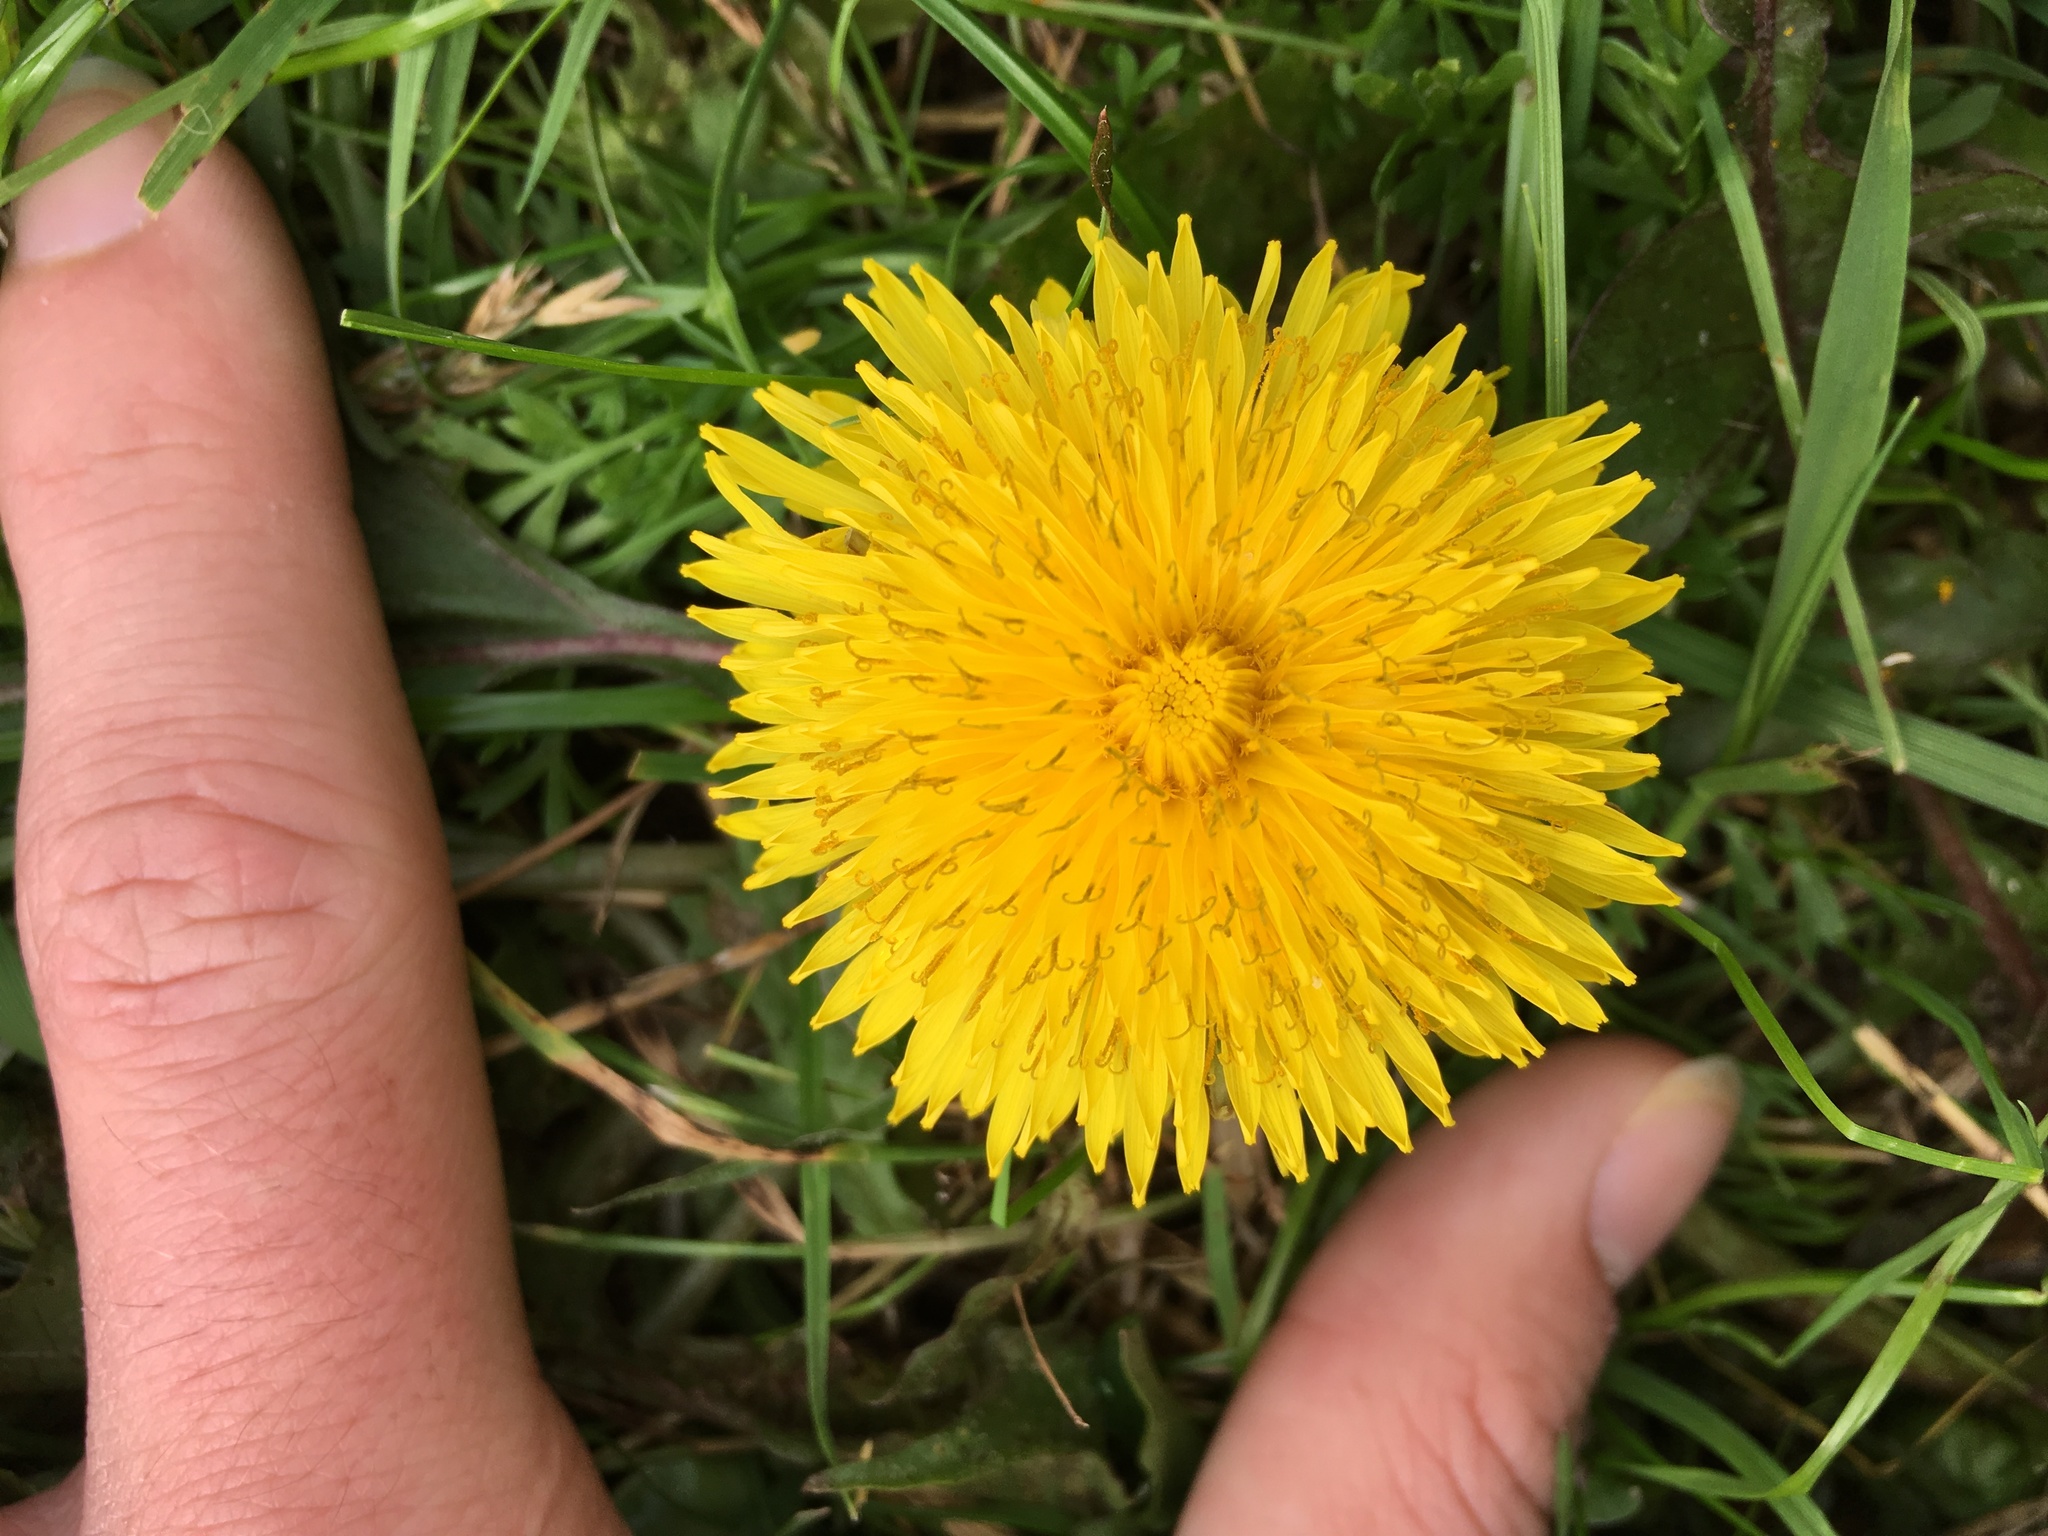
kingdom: Plantae
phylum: Tracheophyta
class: Magnoliopsida
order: Asterales
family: Asteraceae
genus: Taraxacum
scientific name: Taraxacum officinale
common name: Common dandelion
